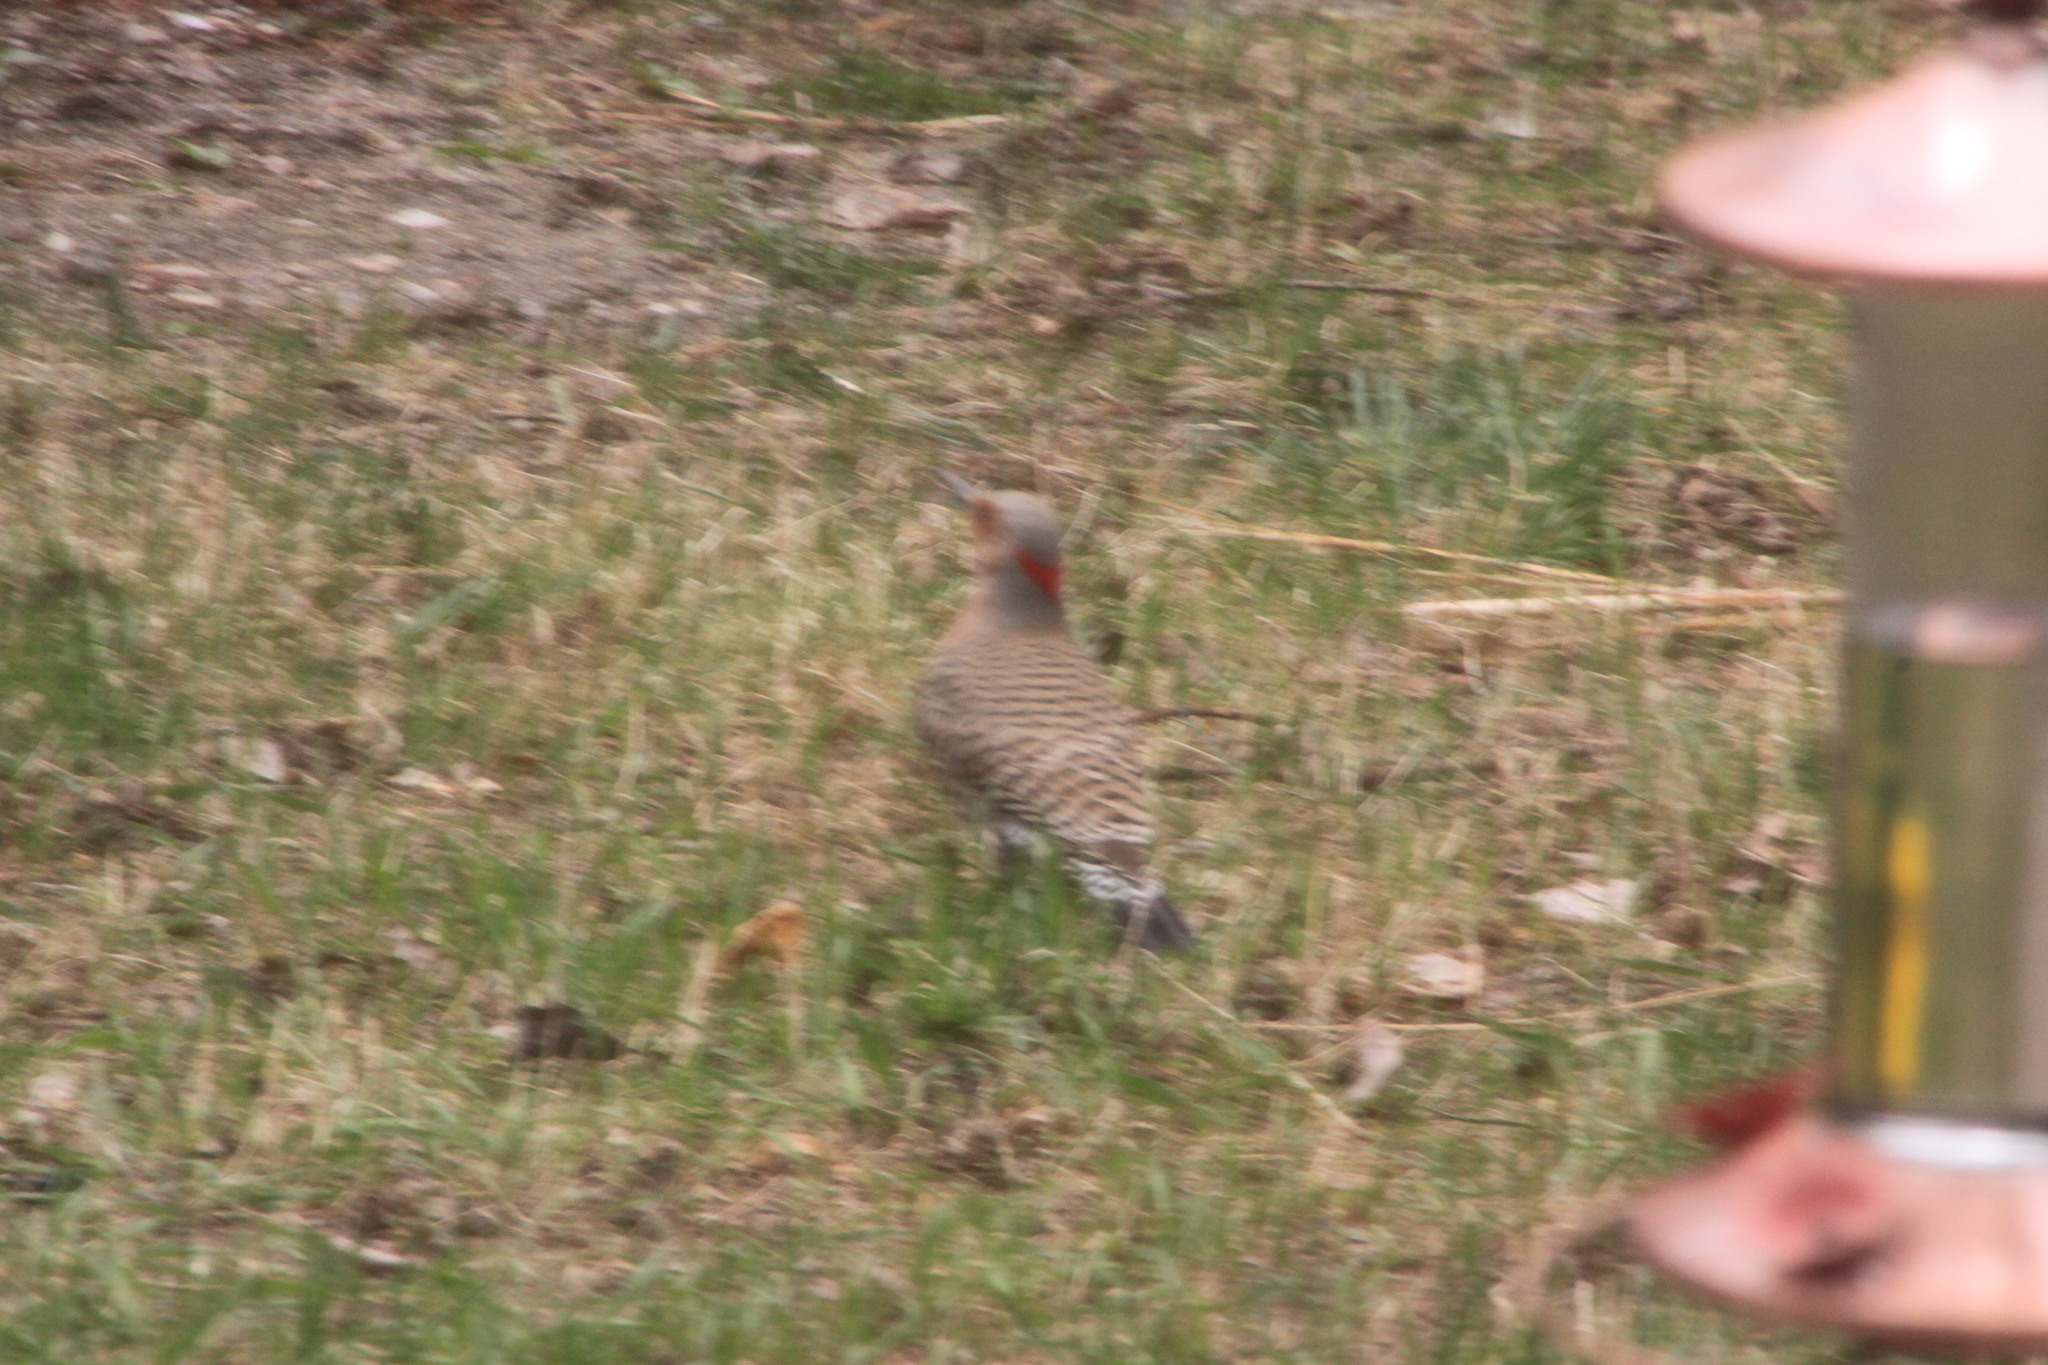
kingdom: Animalia
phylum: Chordata
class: Aves
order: Piciformes
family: Picidae
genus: Colaptes
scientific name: Colaptes auratus
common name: Northern flicker
